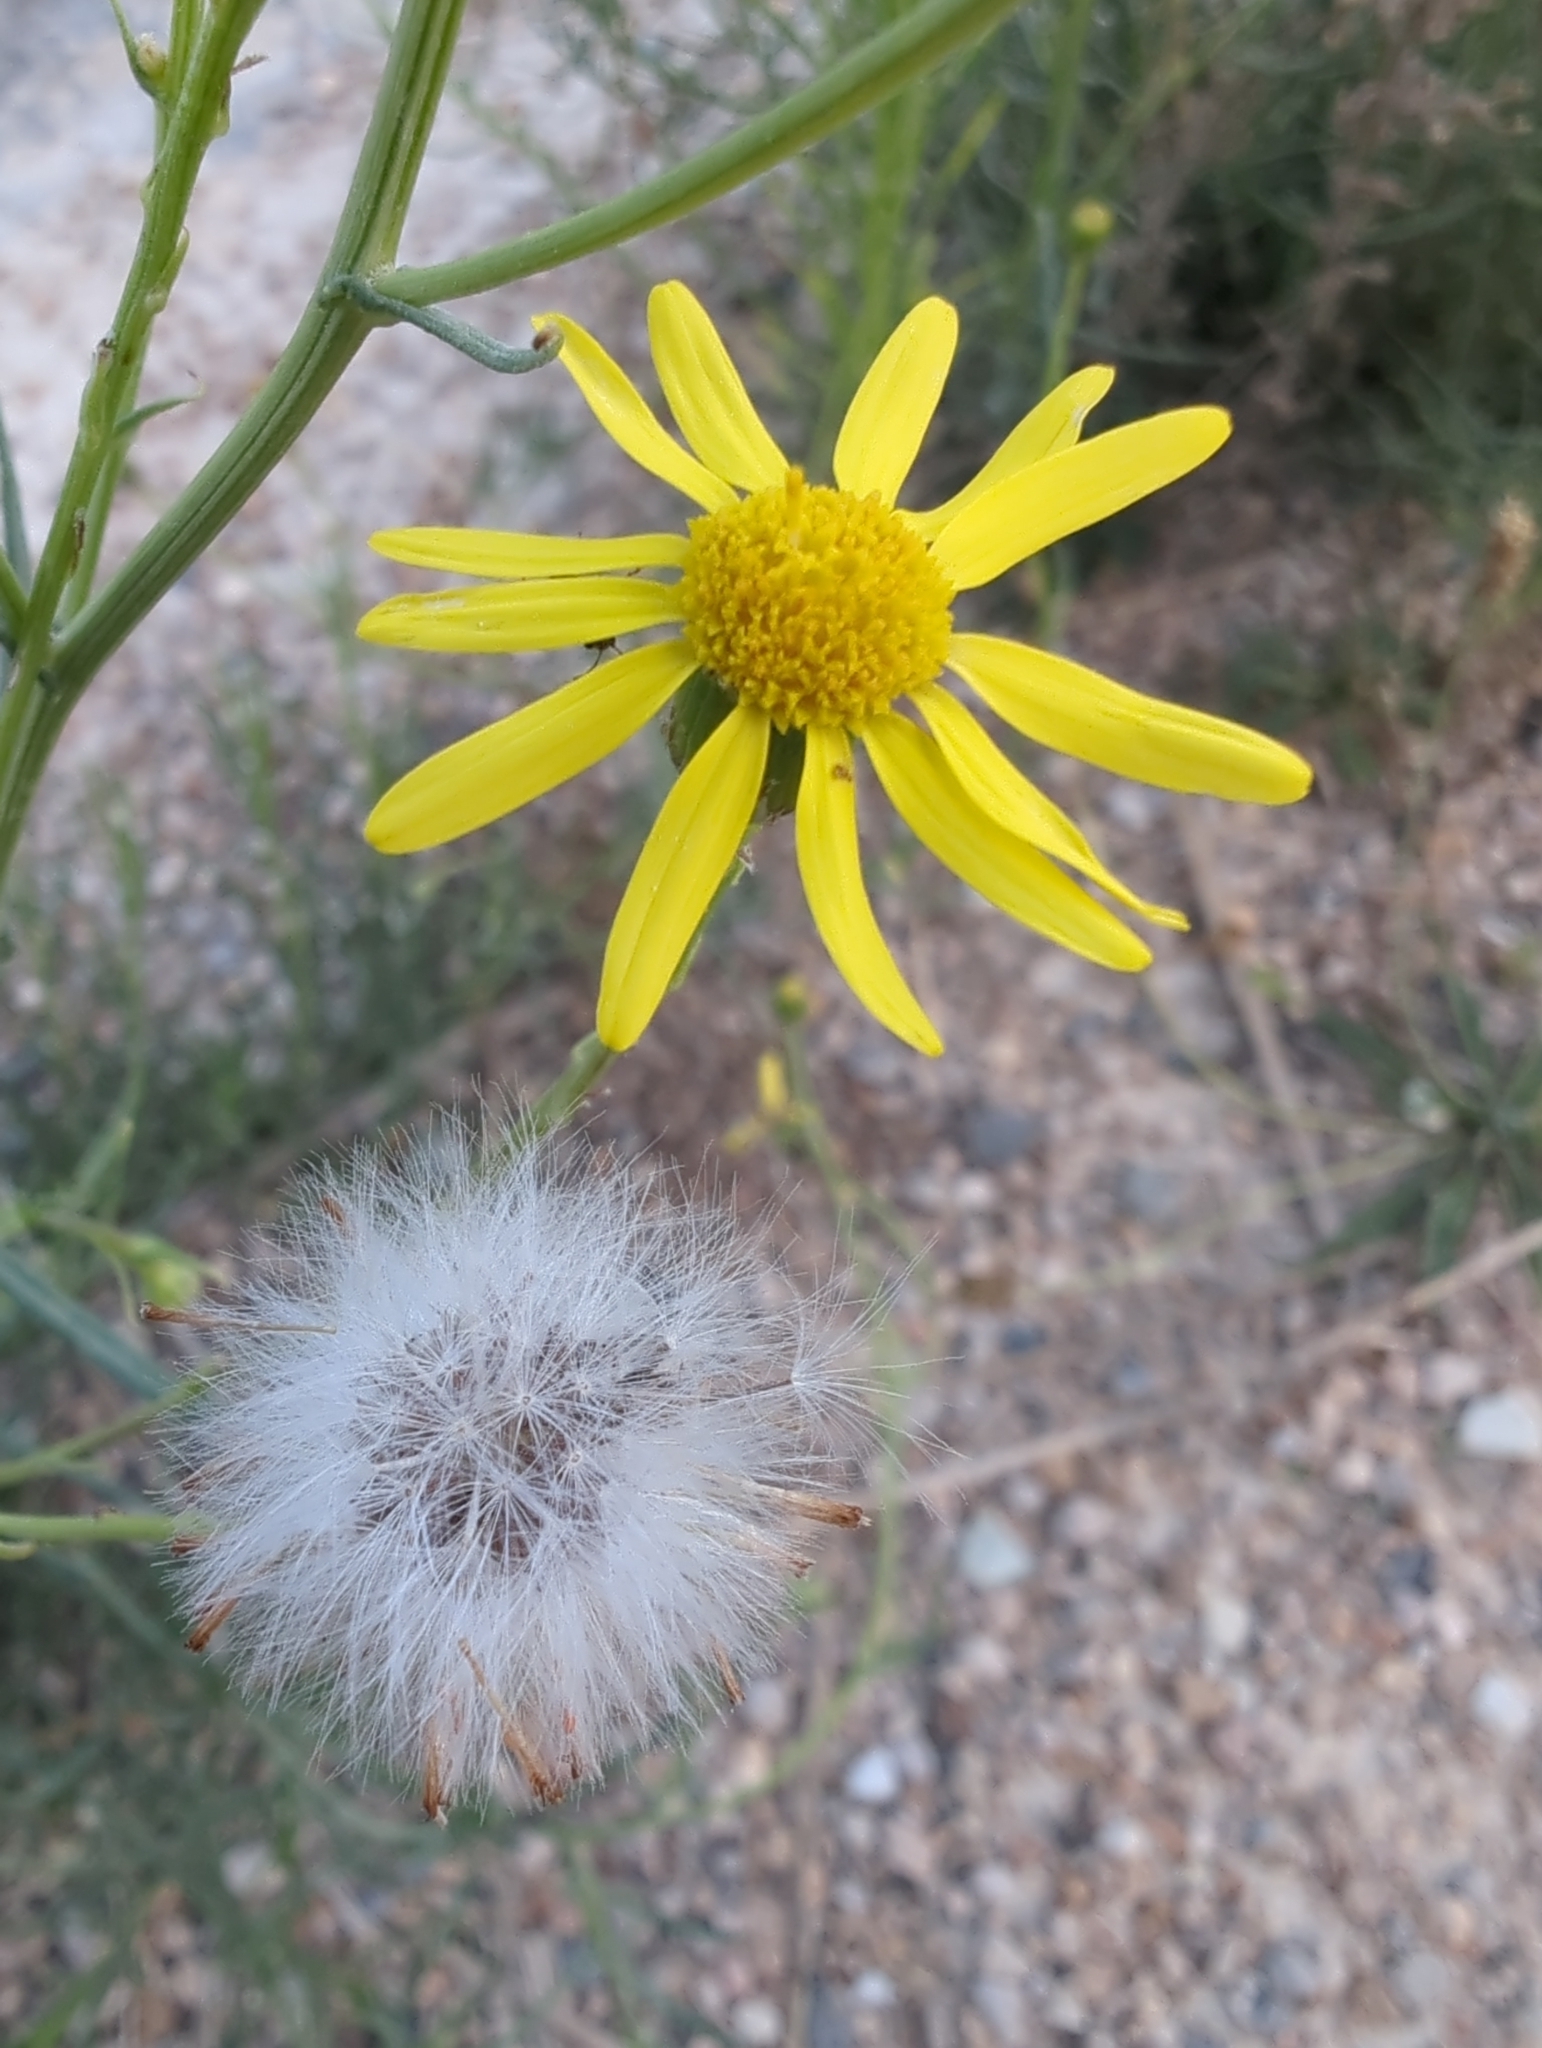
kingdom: Plantae
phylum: Tracheophyta
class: Magnoliopsida
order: Asterales
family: Asteraceae
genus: Senecio
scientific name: Senecio inaequidens
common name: Narrow-leaved ragwort
